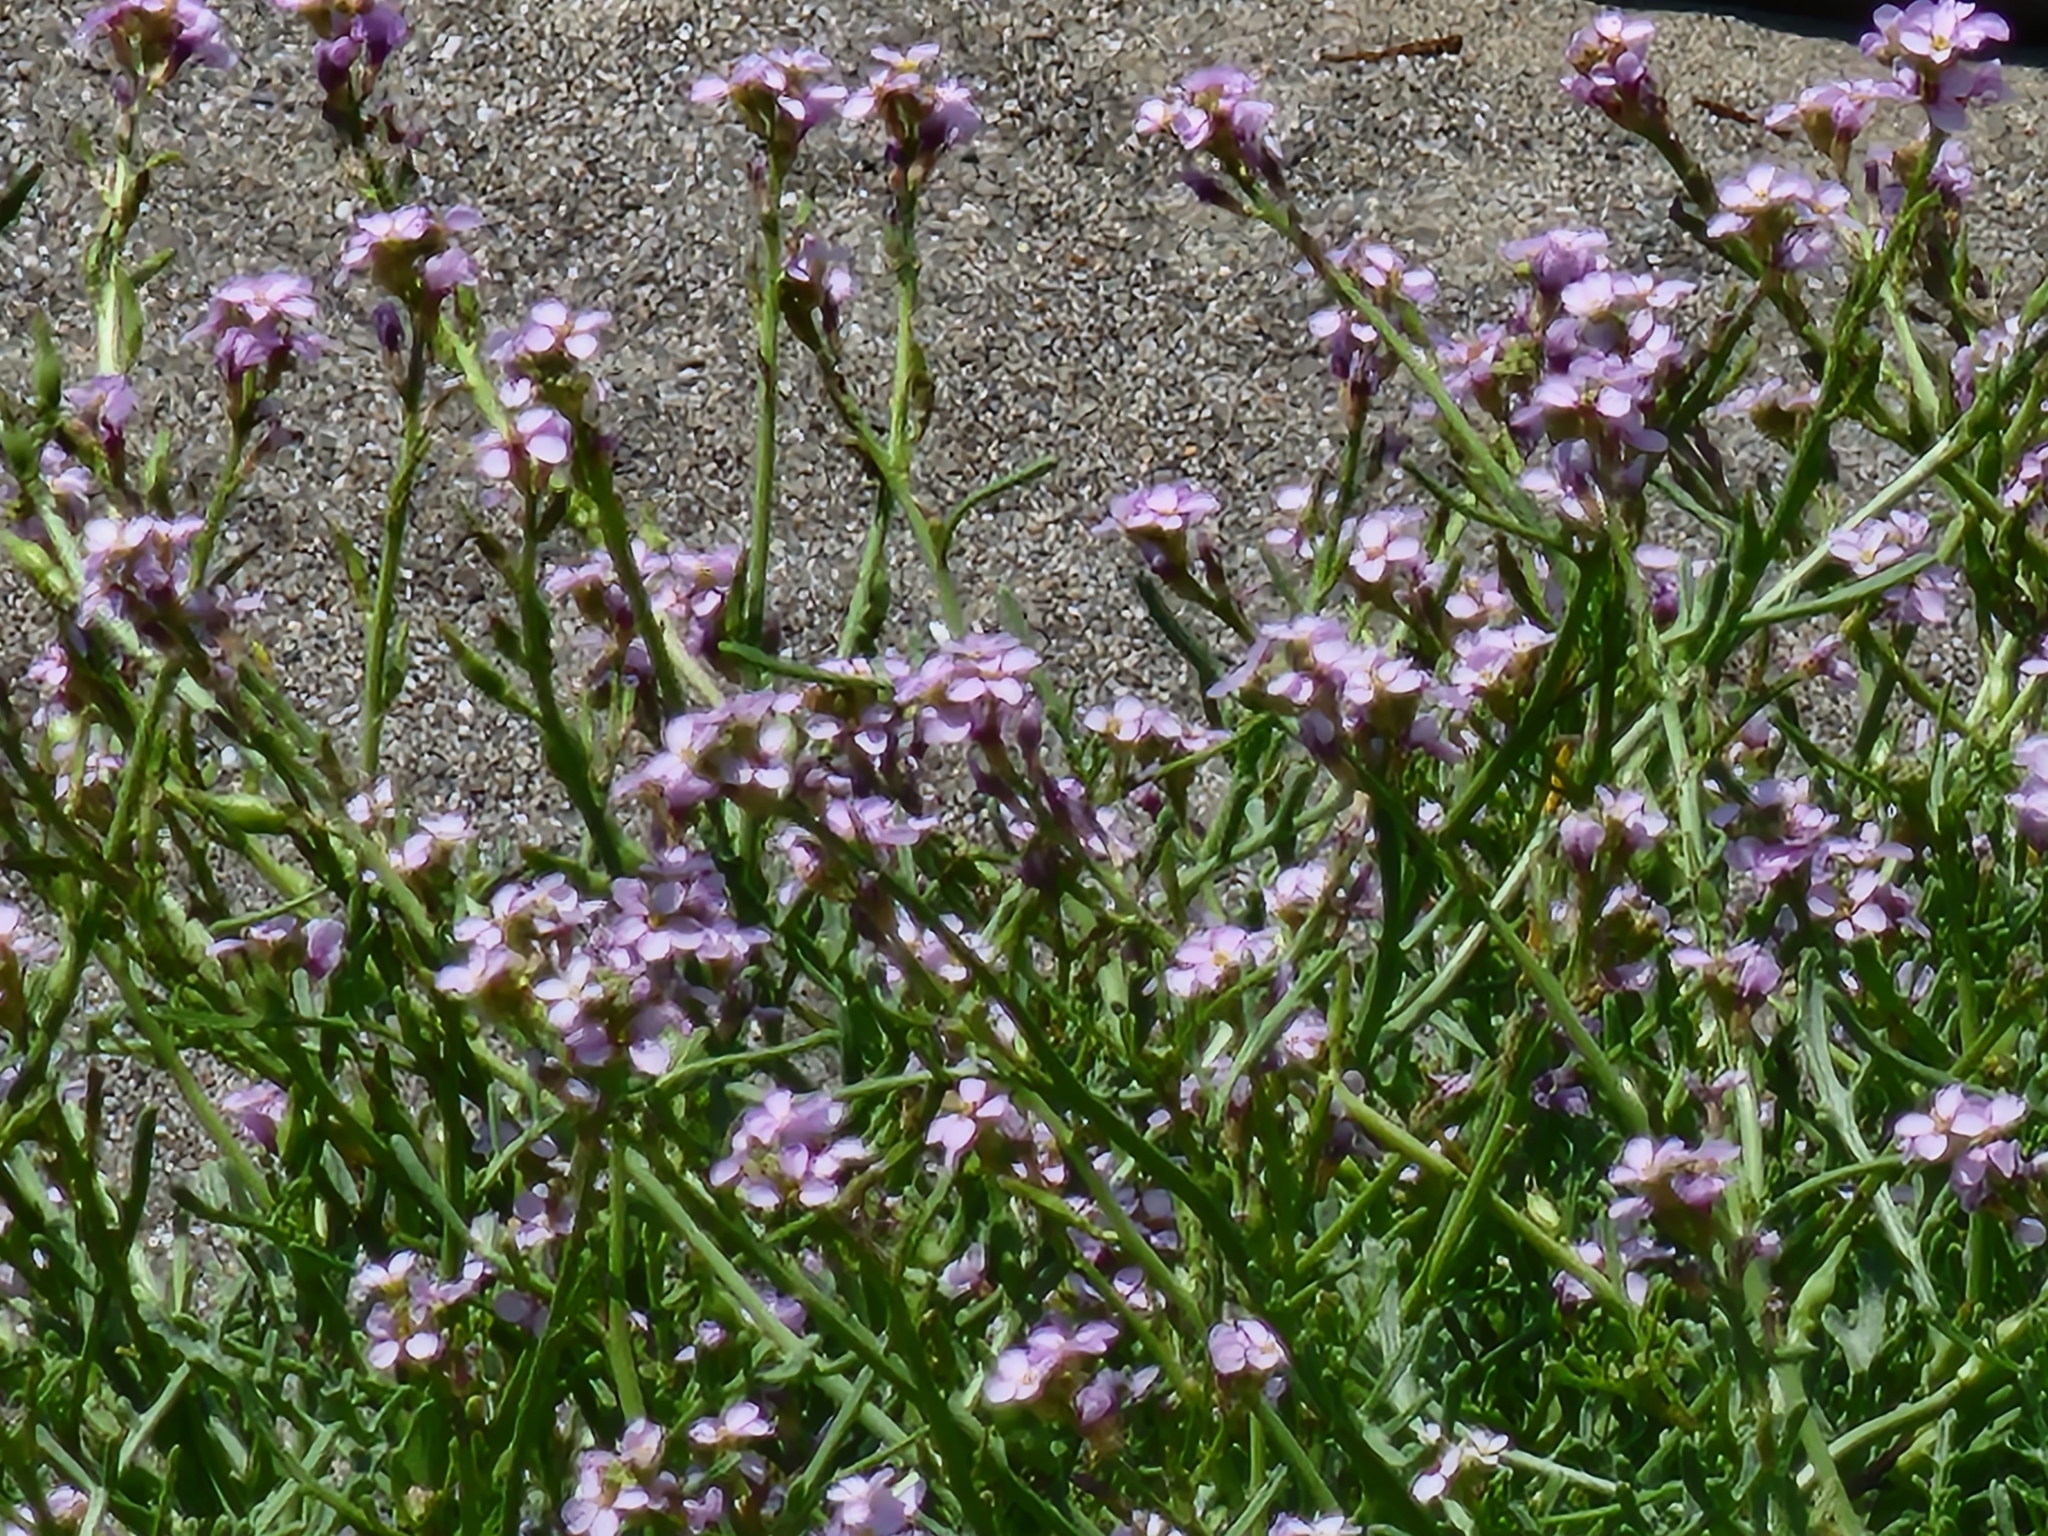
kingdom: Plantae
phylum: Tracheophyta
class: Magnoliopsida
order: Brassicales
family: Brassicaceae
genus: Cakile
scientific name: Cakile maritima
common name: Sea rocket
